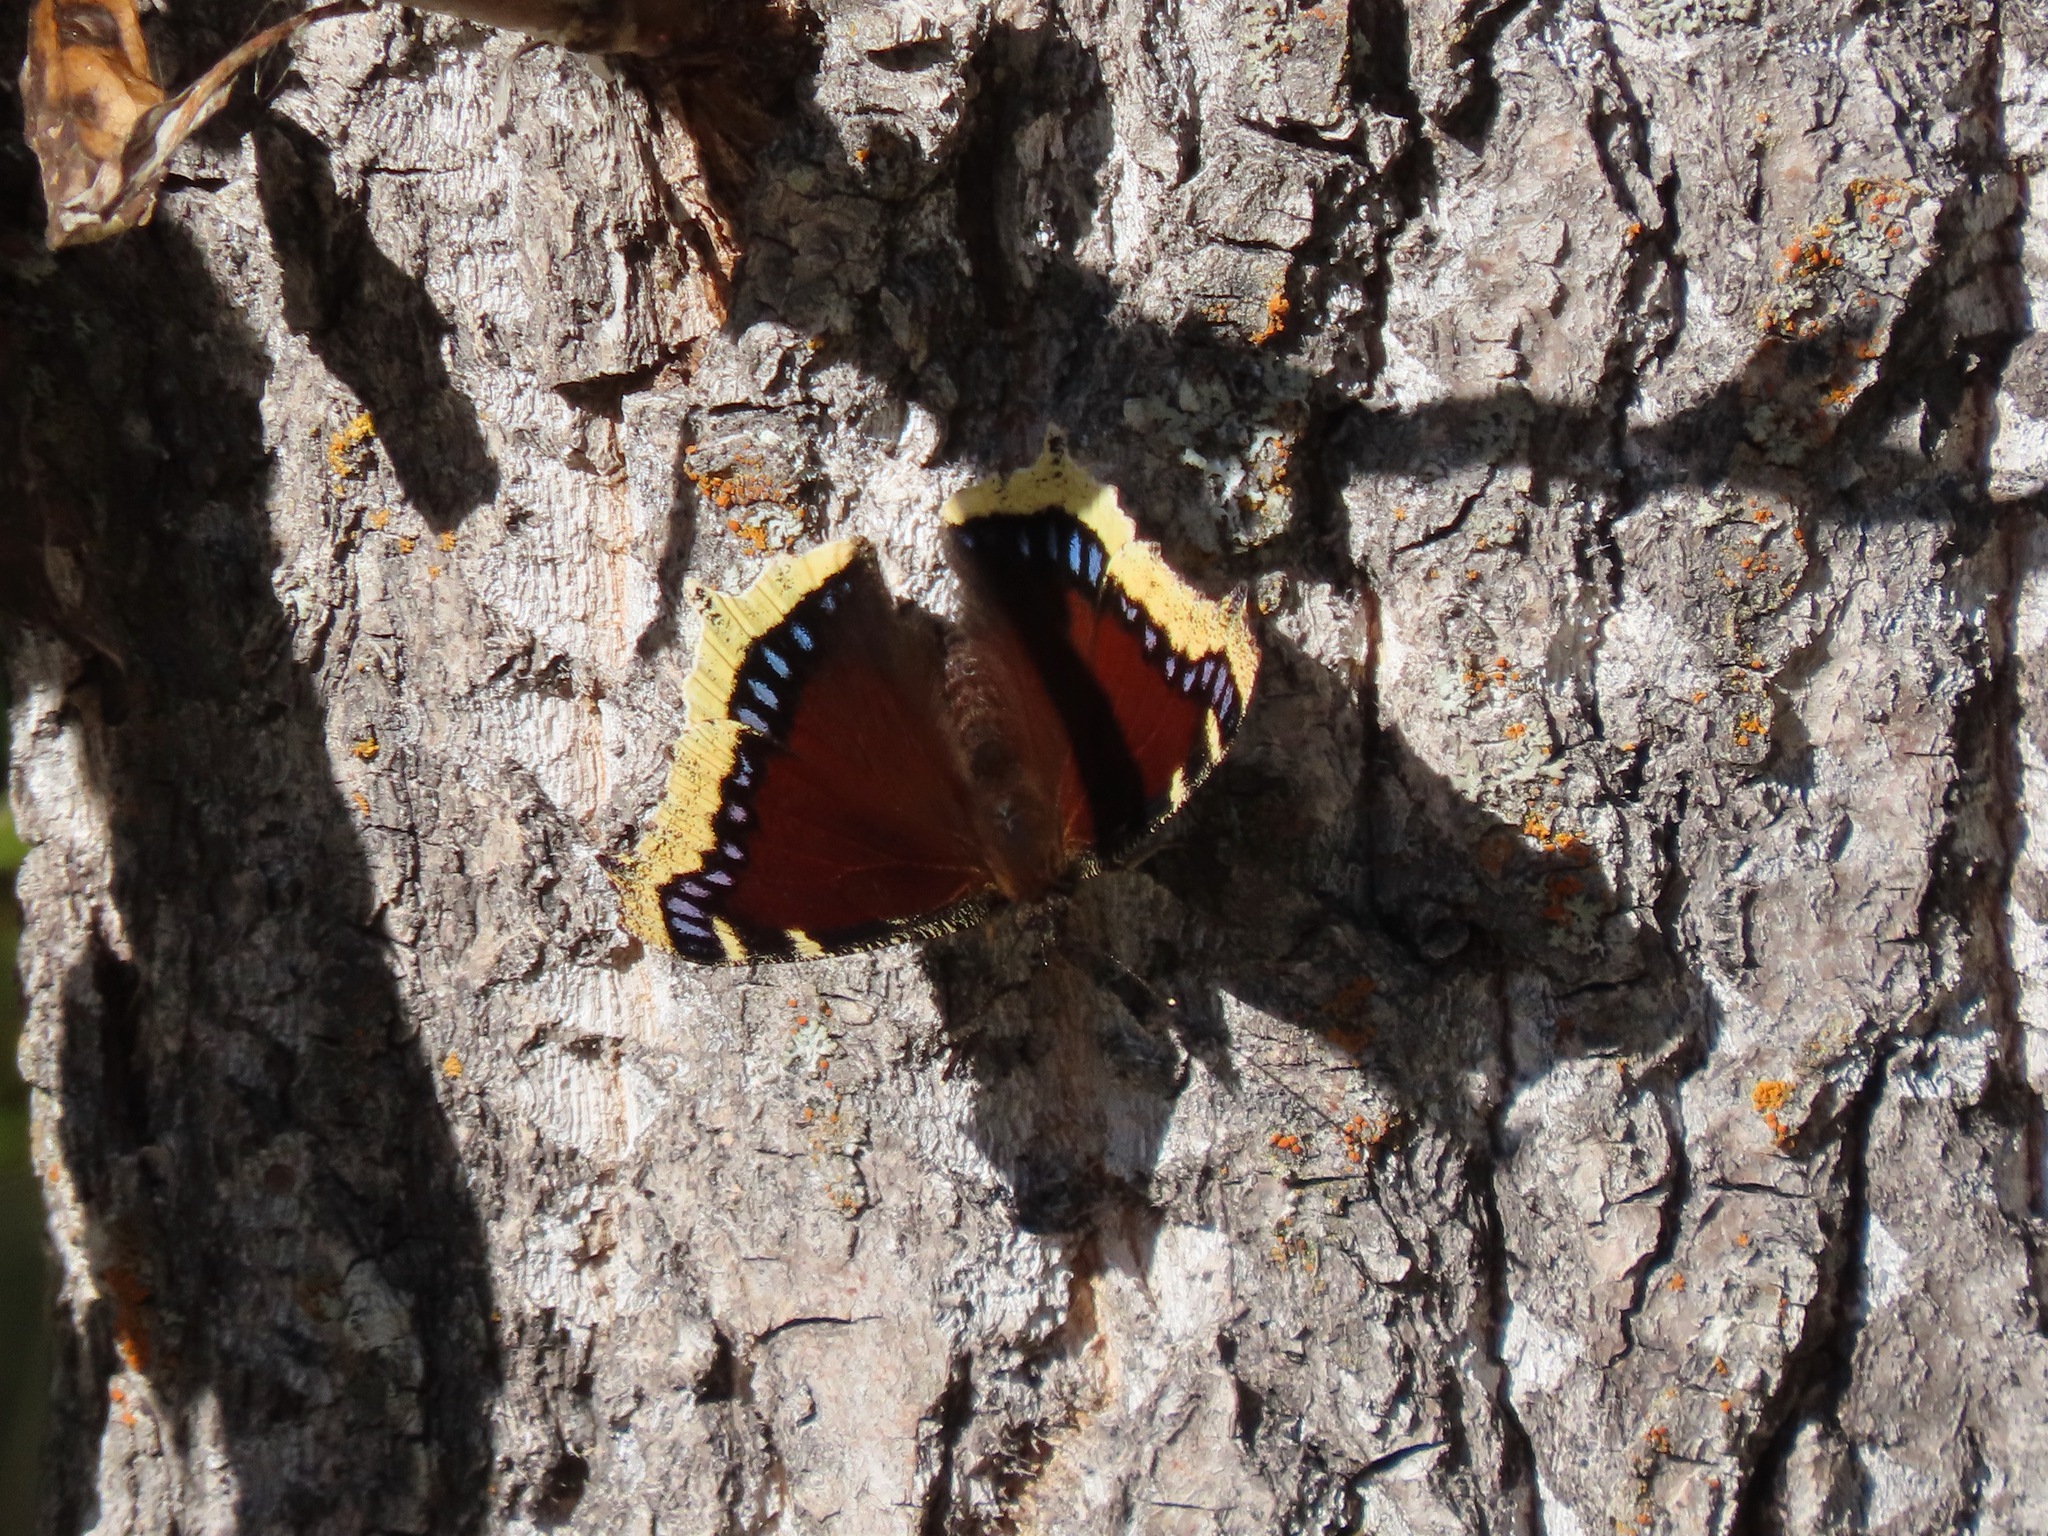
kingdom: Animalia
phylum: Arthropoda
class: Insecta
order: Lepidoptera
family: Nymphalidae
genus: Nymphalis
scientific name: Nymphalis antiopa
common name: Camberwell beauty
